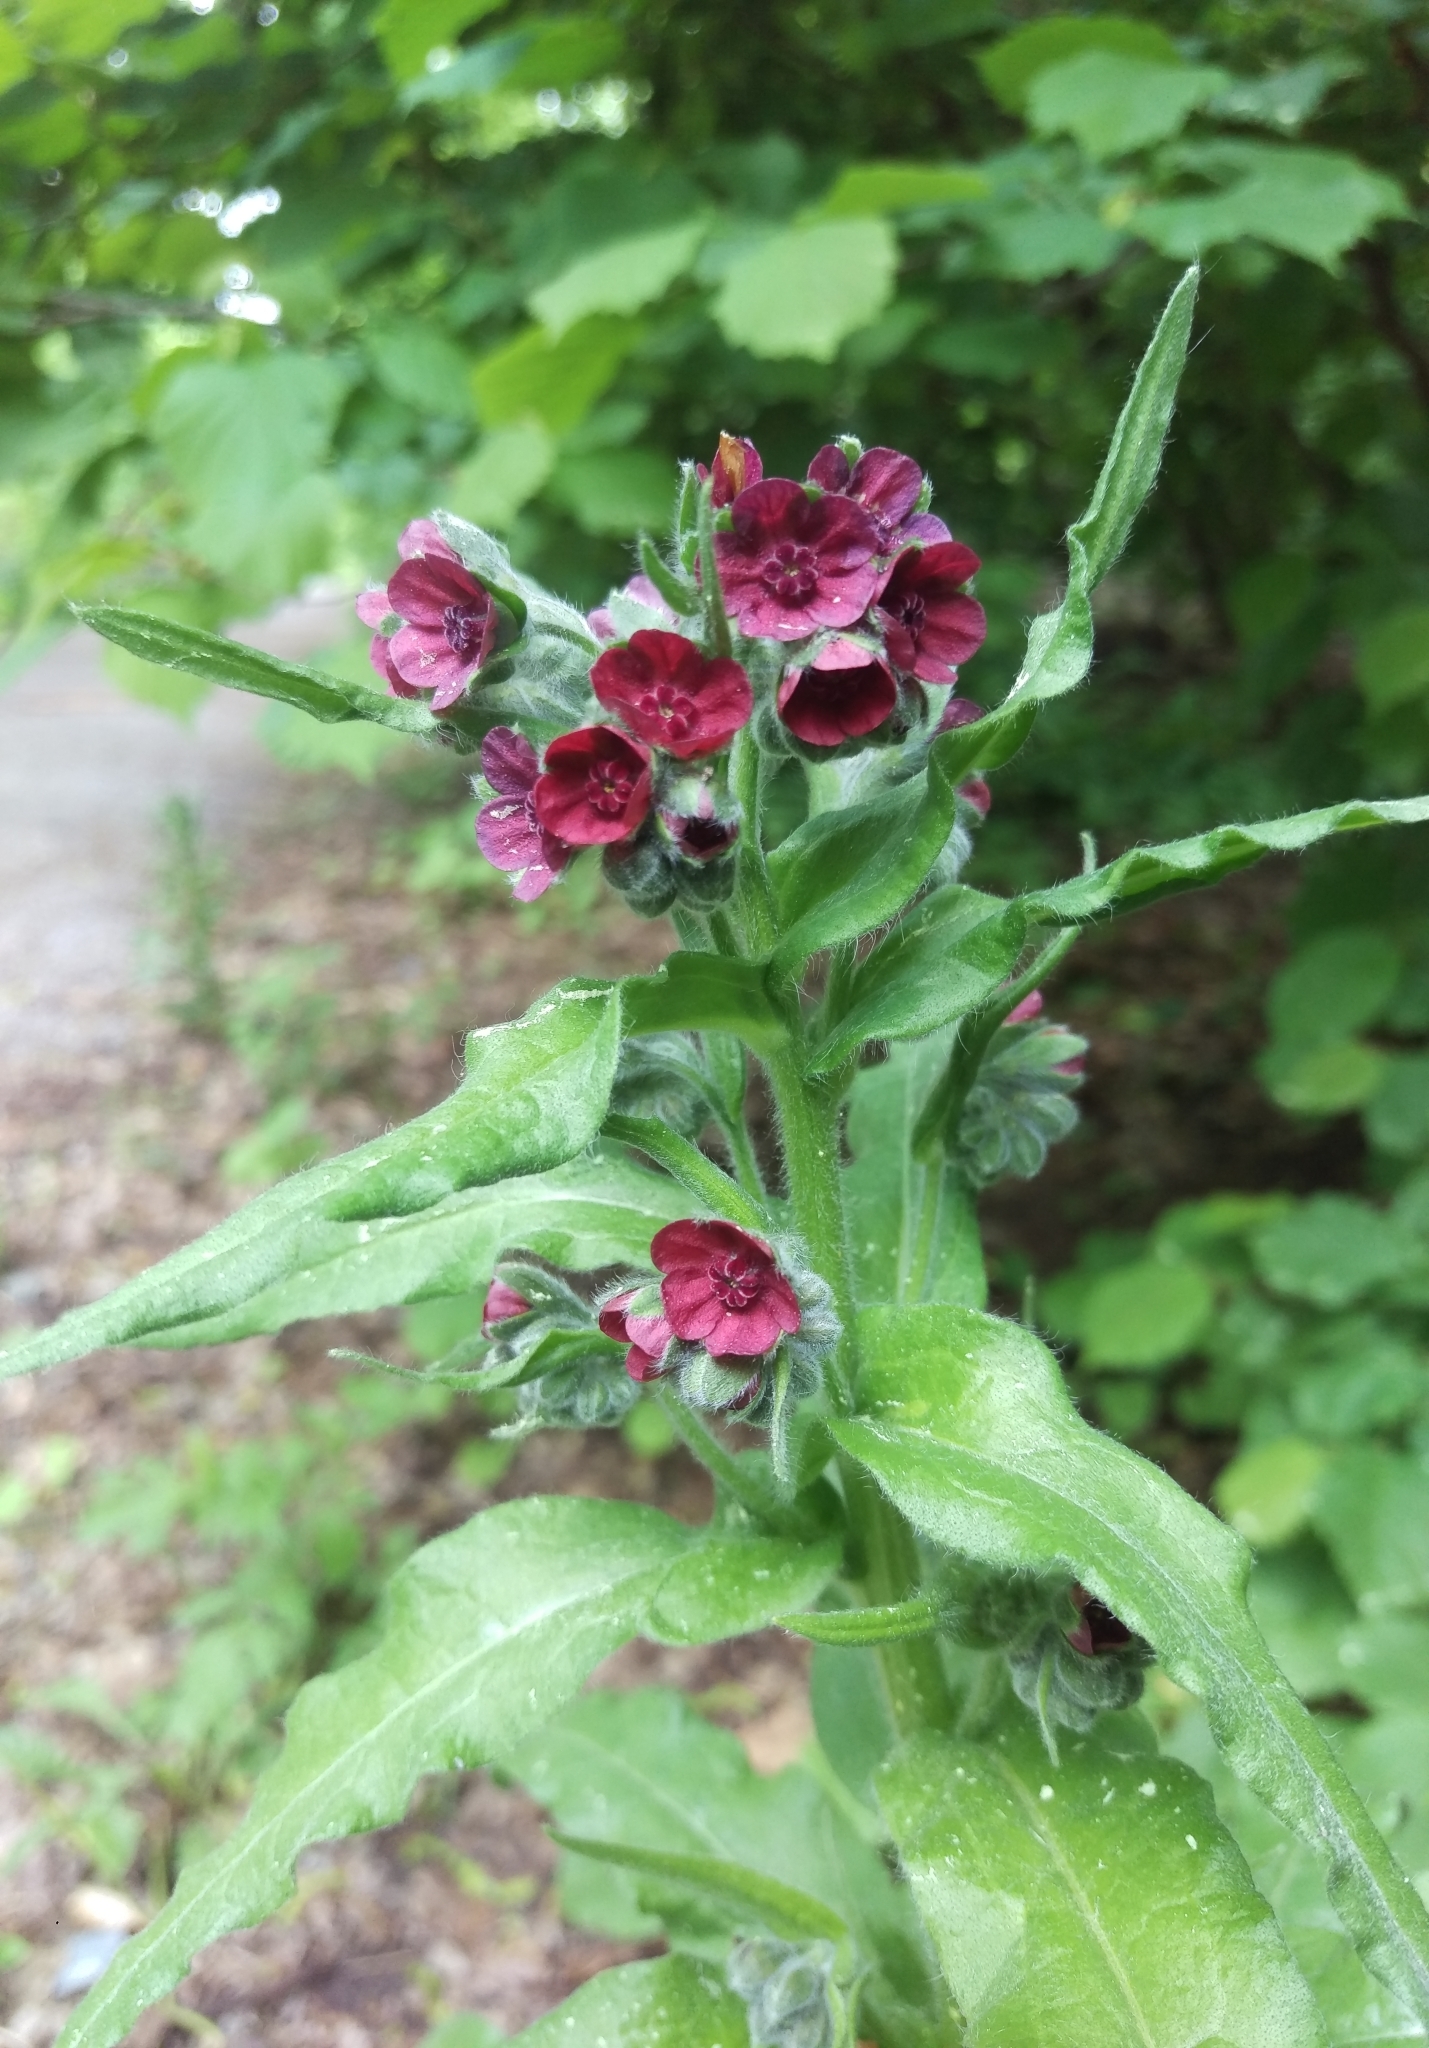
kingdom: Plantae
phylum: Tracheophyta
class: Magnoliopsida
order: Boraginales
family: Boraginaceae
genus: Cynoglossum
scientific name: Cynoglossum officinale
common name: Hound's-tongue
